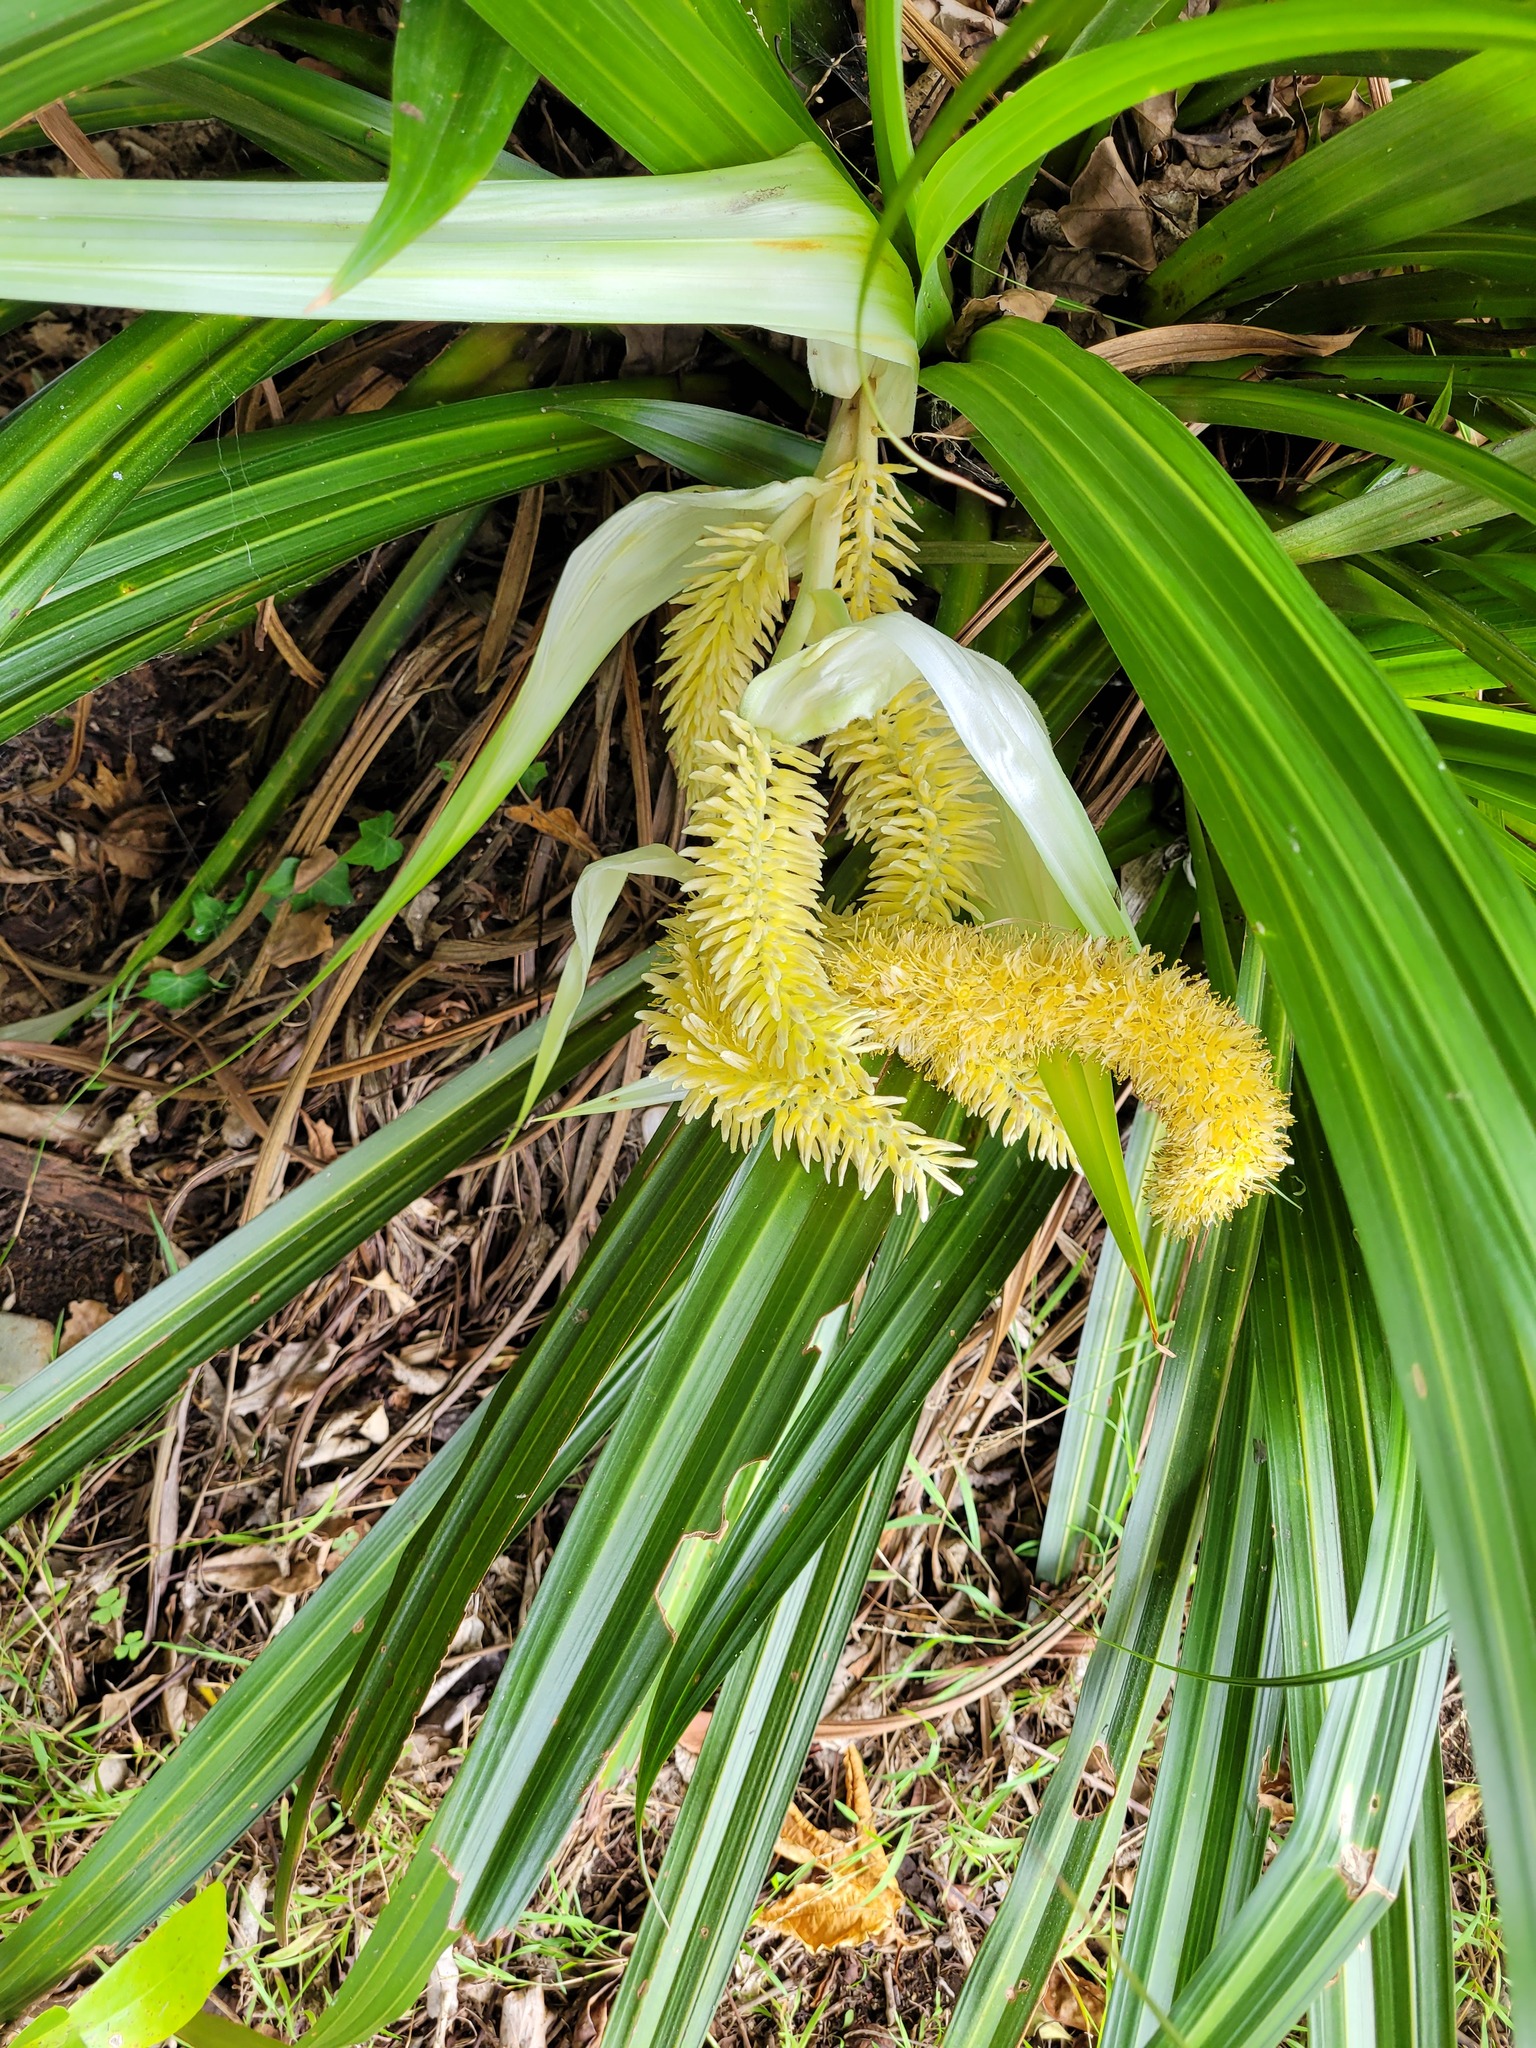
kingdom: Plantae
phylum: Tracheophyta
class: Liliopsida
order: Asparagales
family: Asteliaceae
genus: Astelia
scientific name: Astelia hastata
